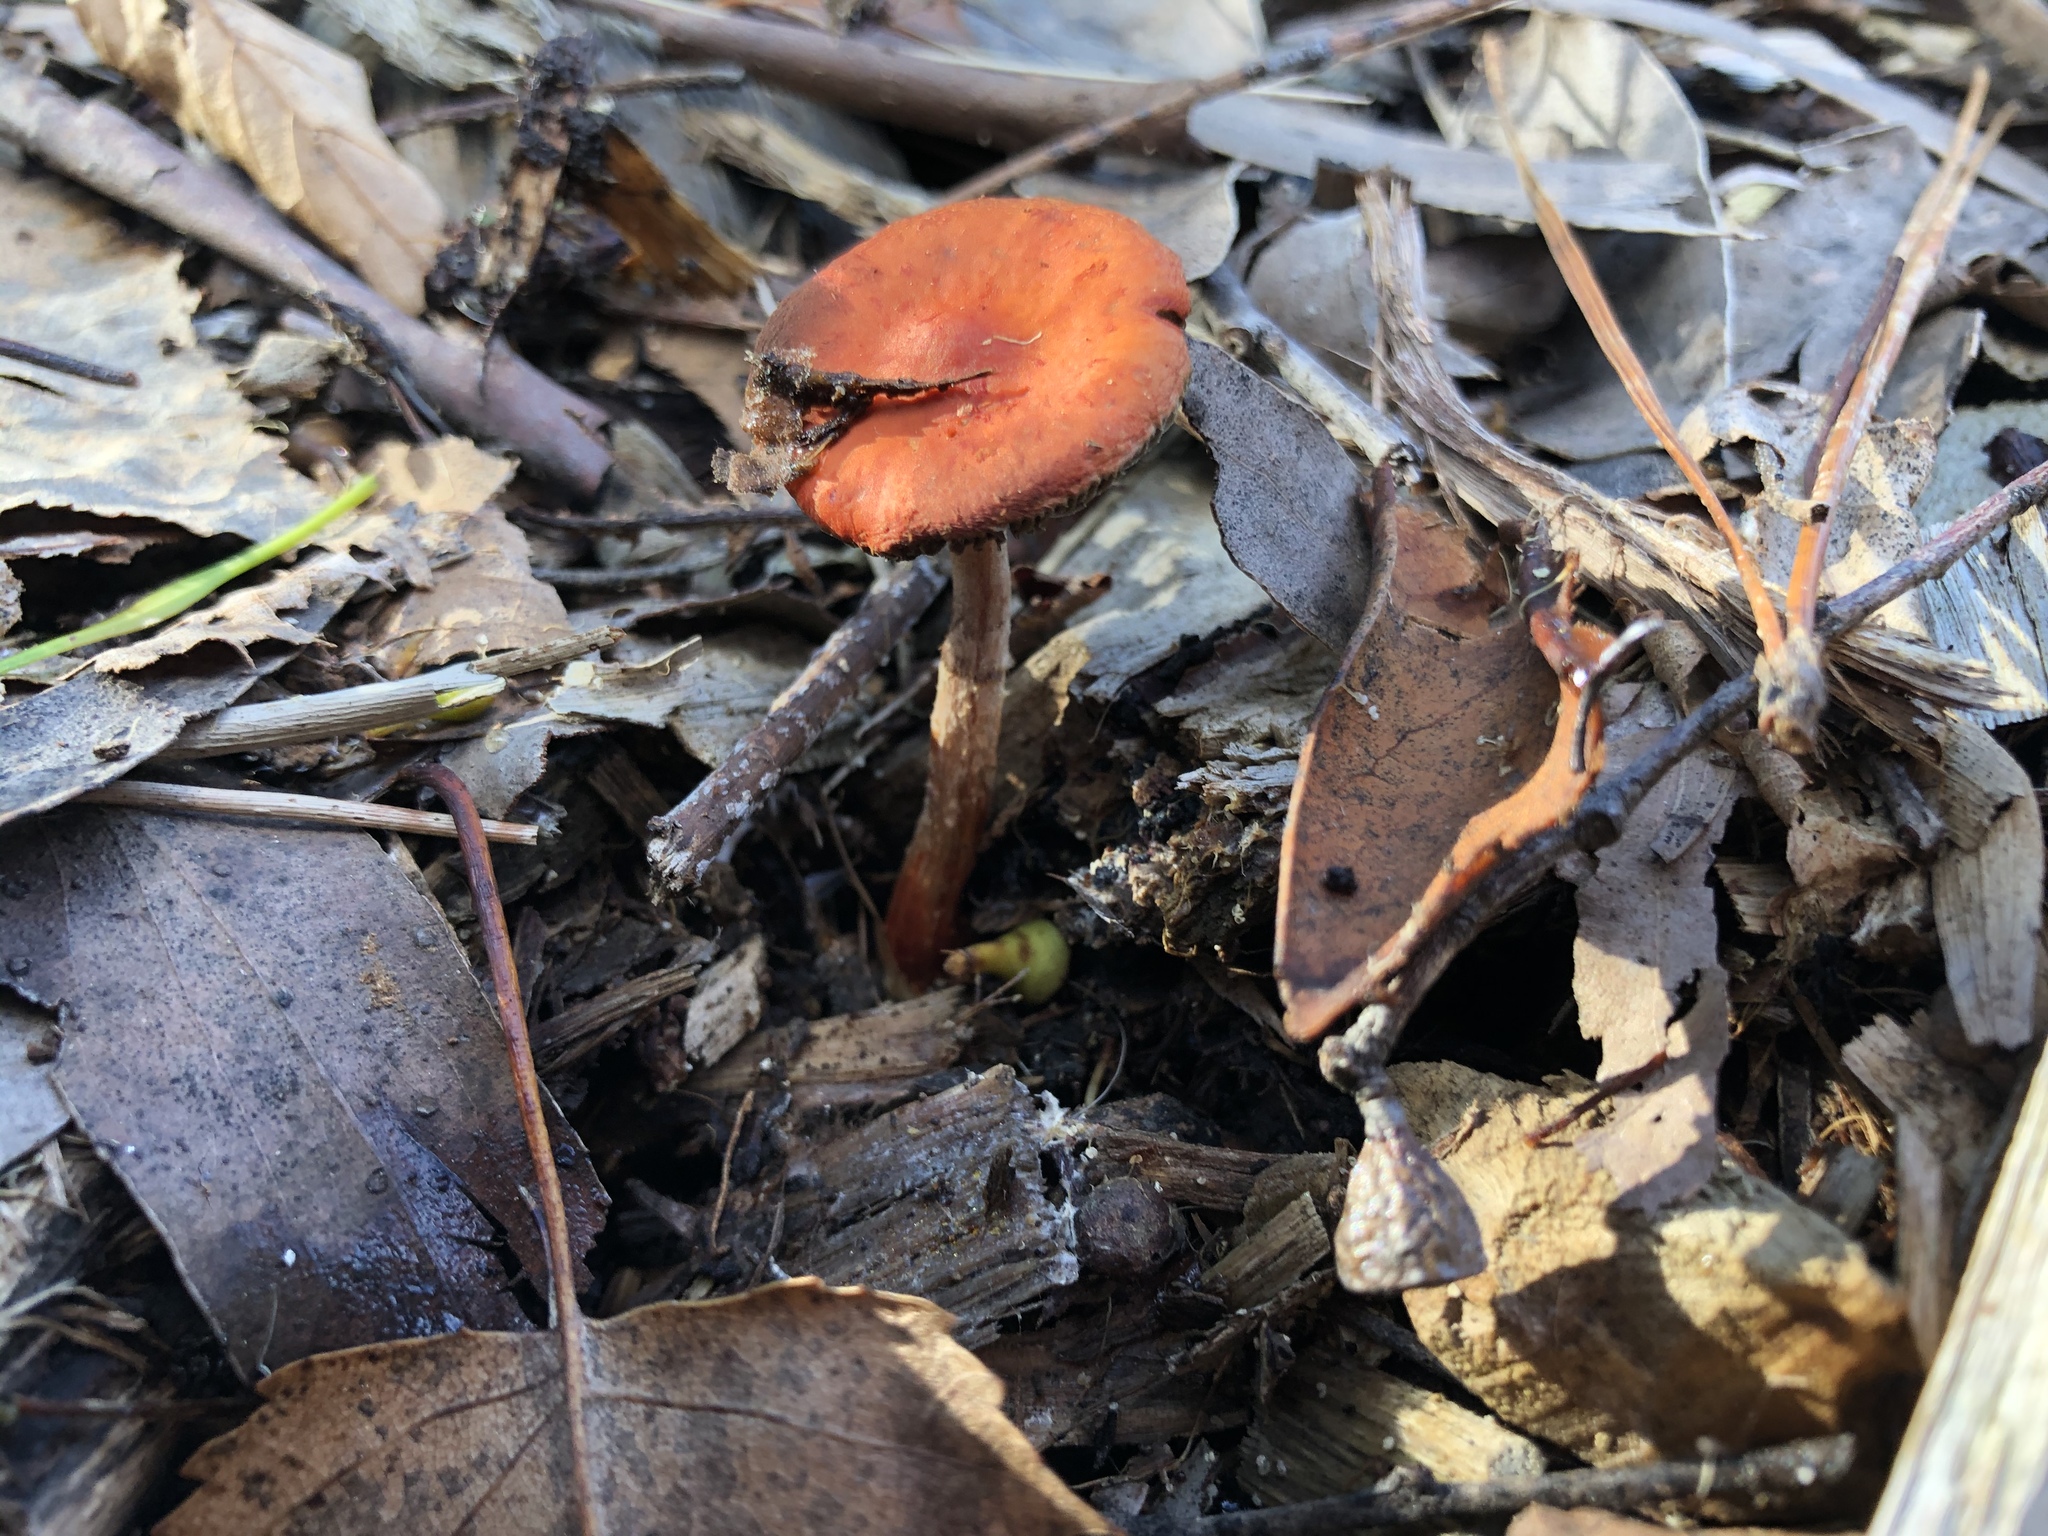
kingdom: Fungi
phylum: Basidiomycota
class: Agaricomycetes
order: Agaricales
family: Strophariaceae
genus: Leratiomyces
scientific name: Leratiomyces ceres
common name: Redlead roundhead
